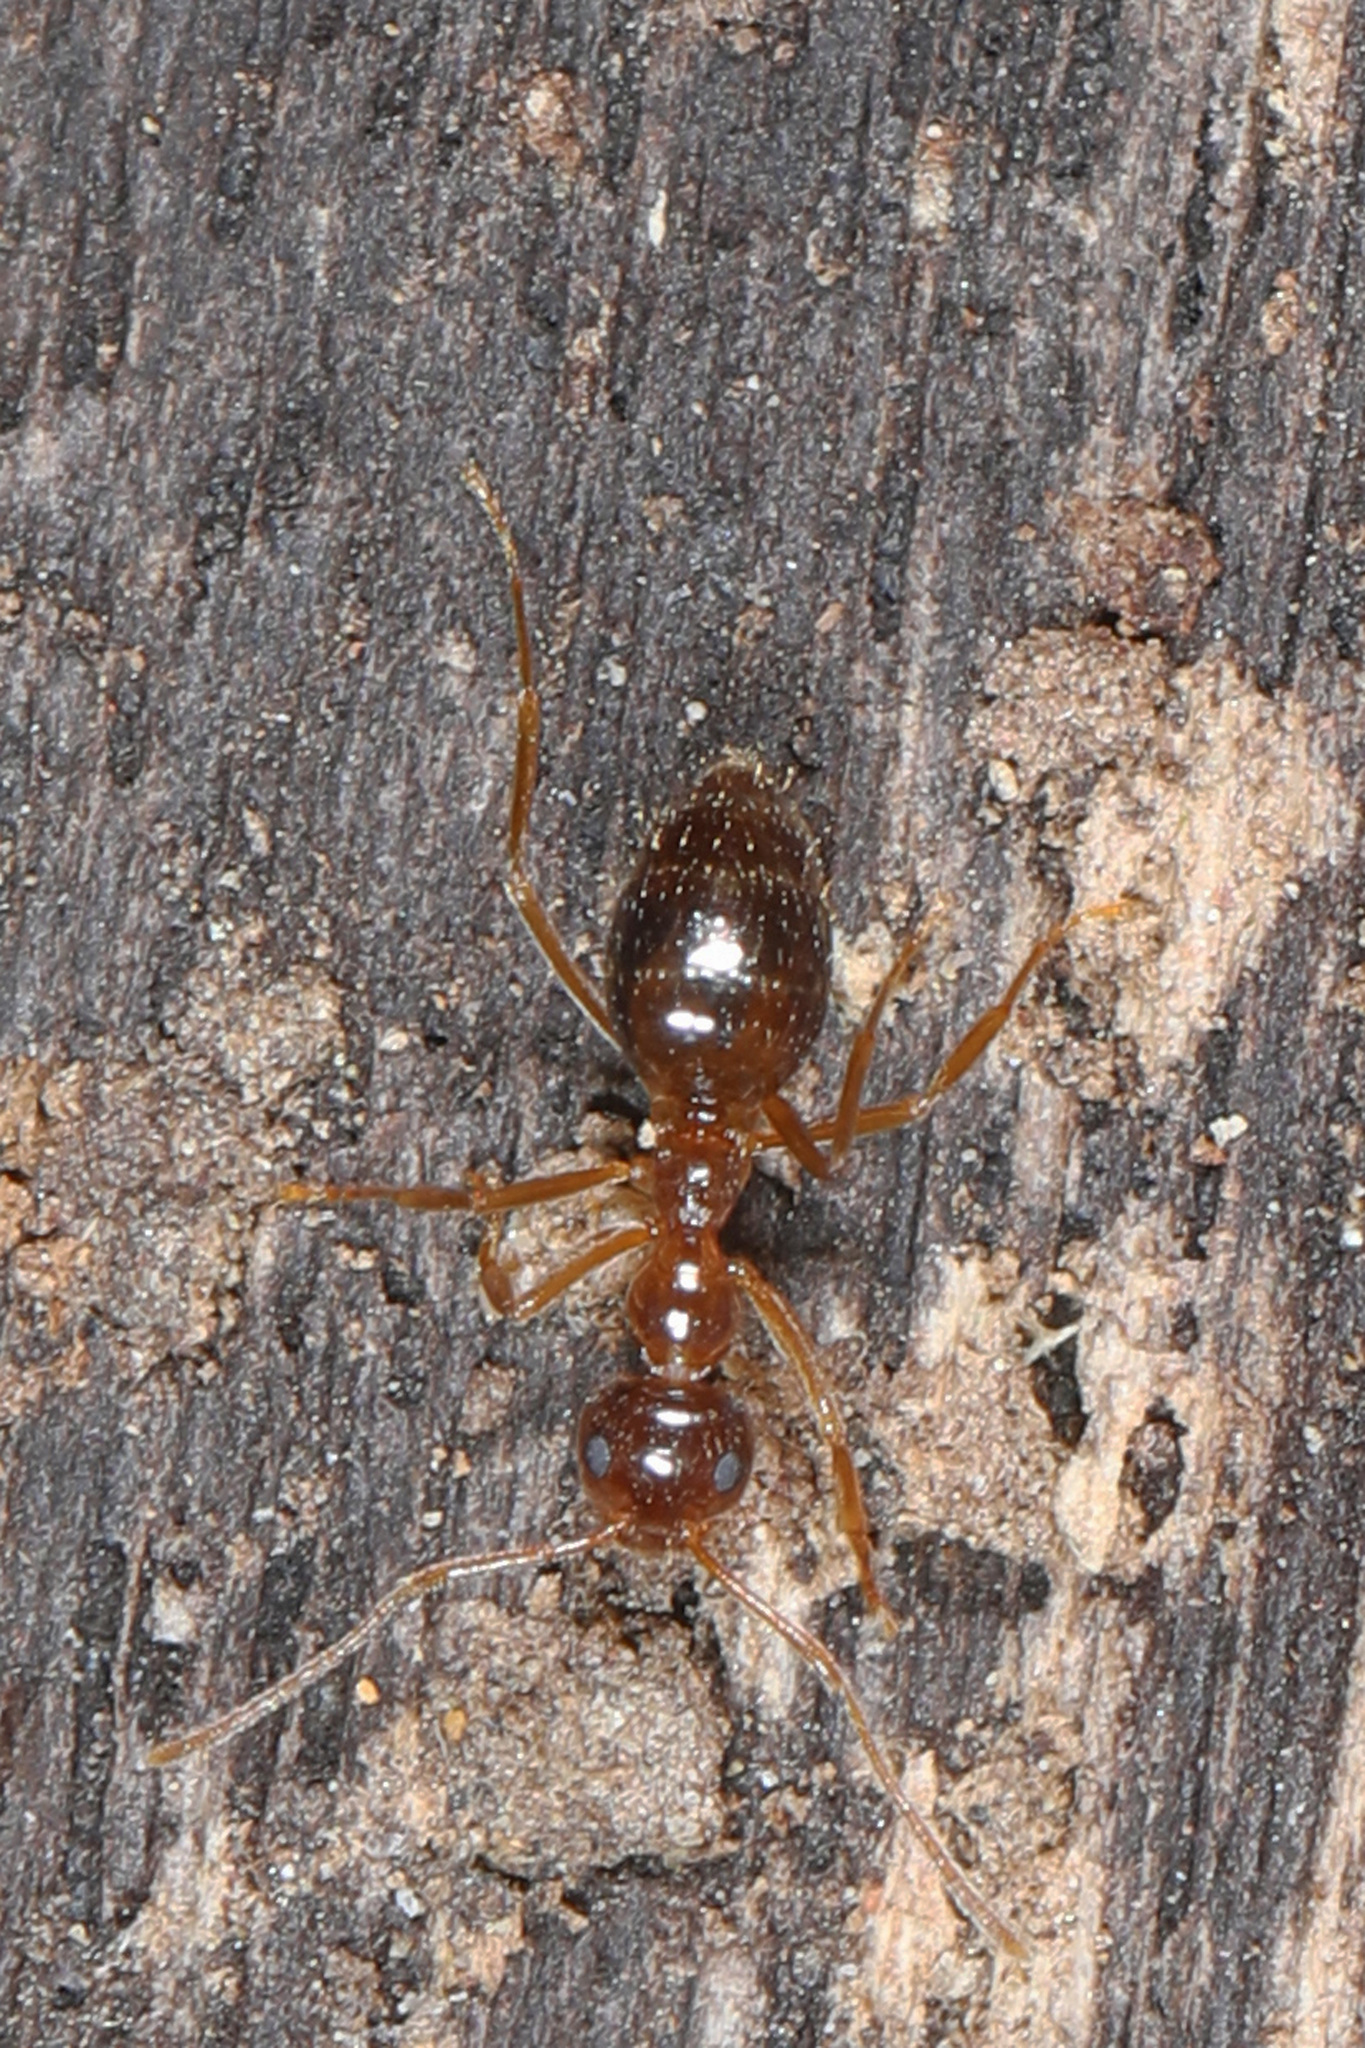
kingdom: Animalia
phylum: Arthropoda
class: Insecta
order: Hymenoptera
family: Formicidae
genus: Prenolepis
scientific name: Prenolepis imparis
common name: Small honey ant
